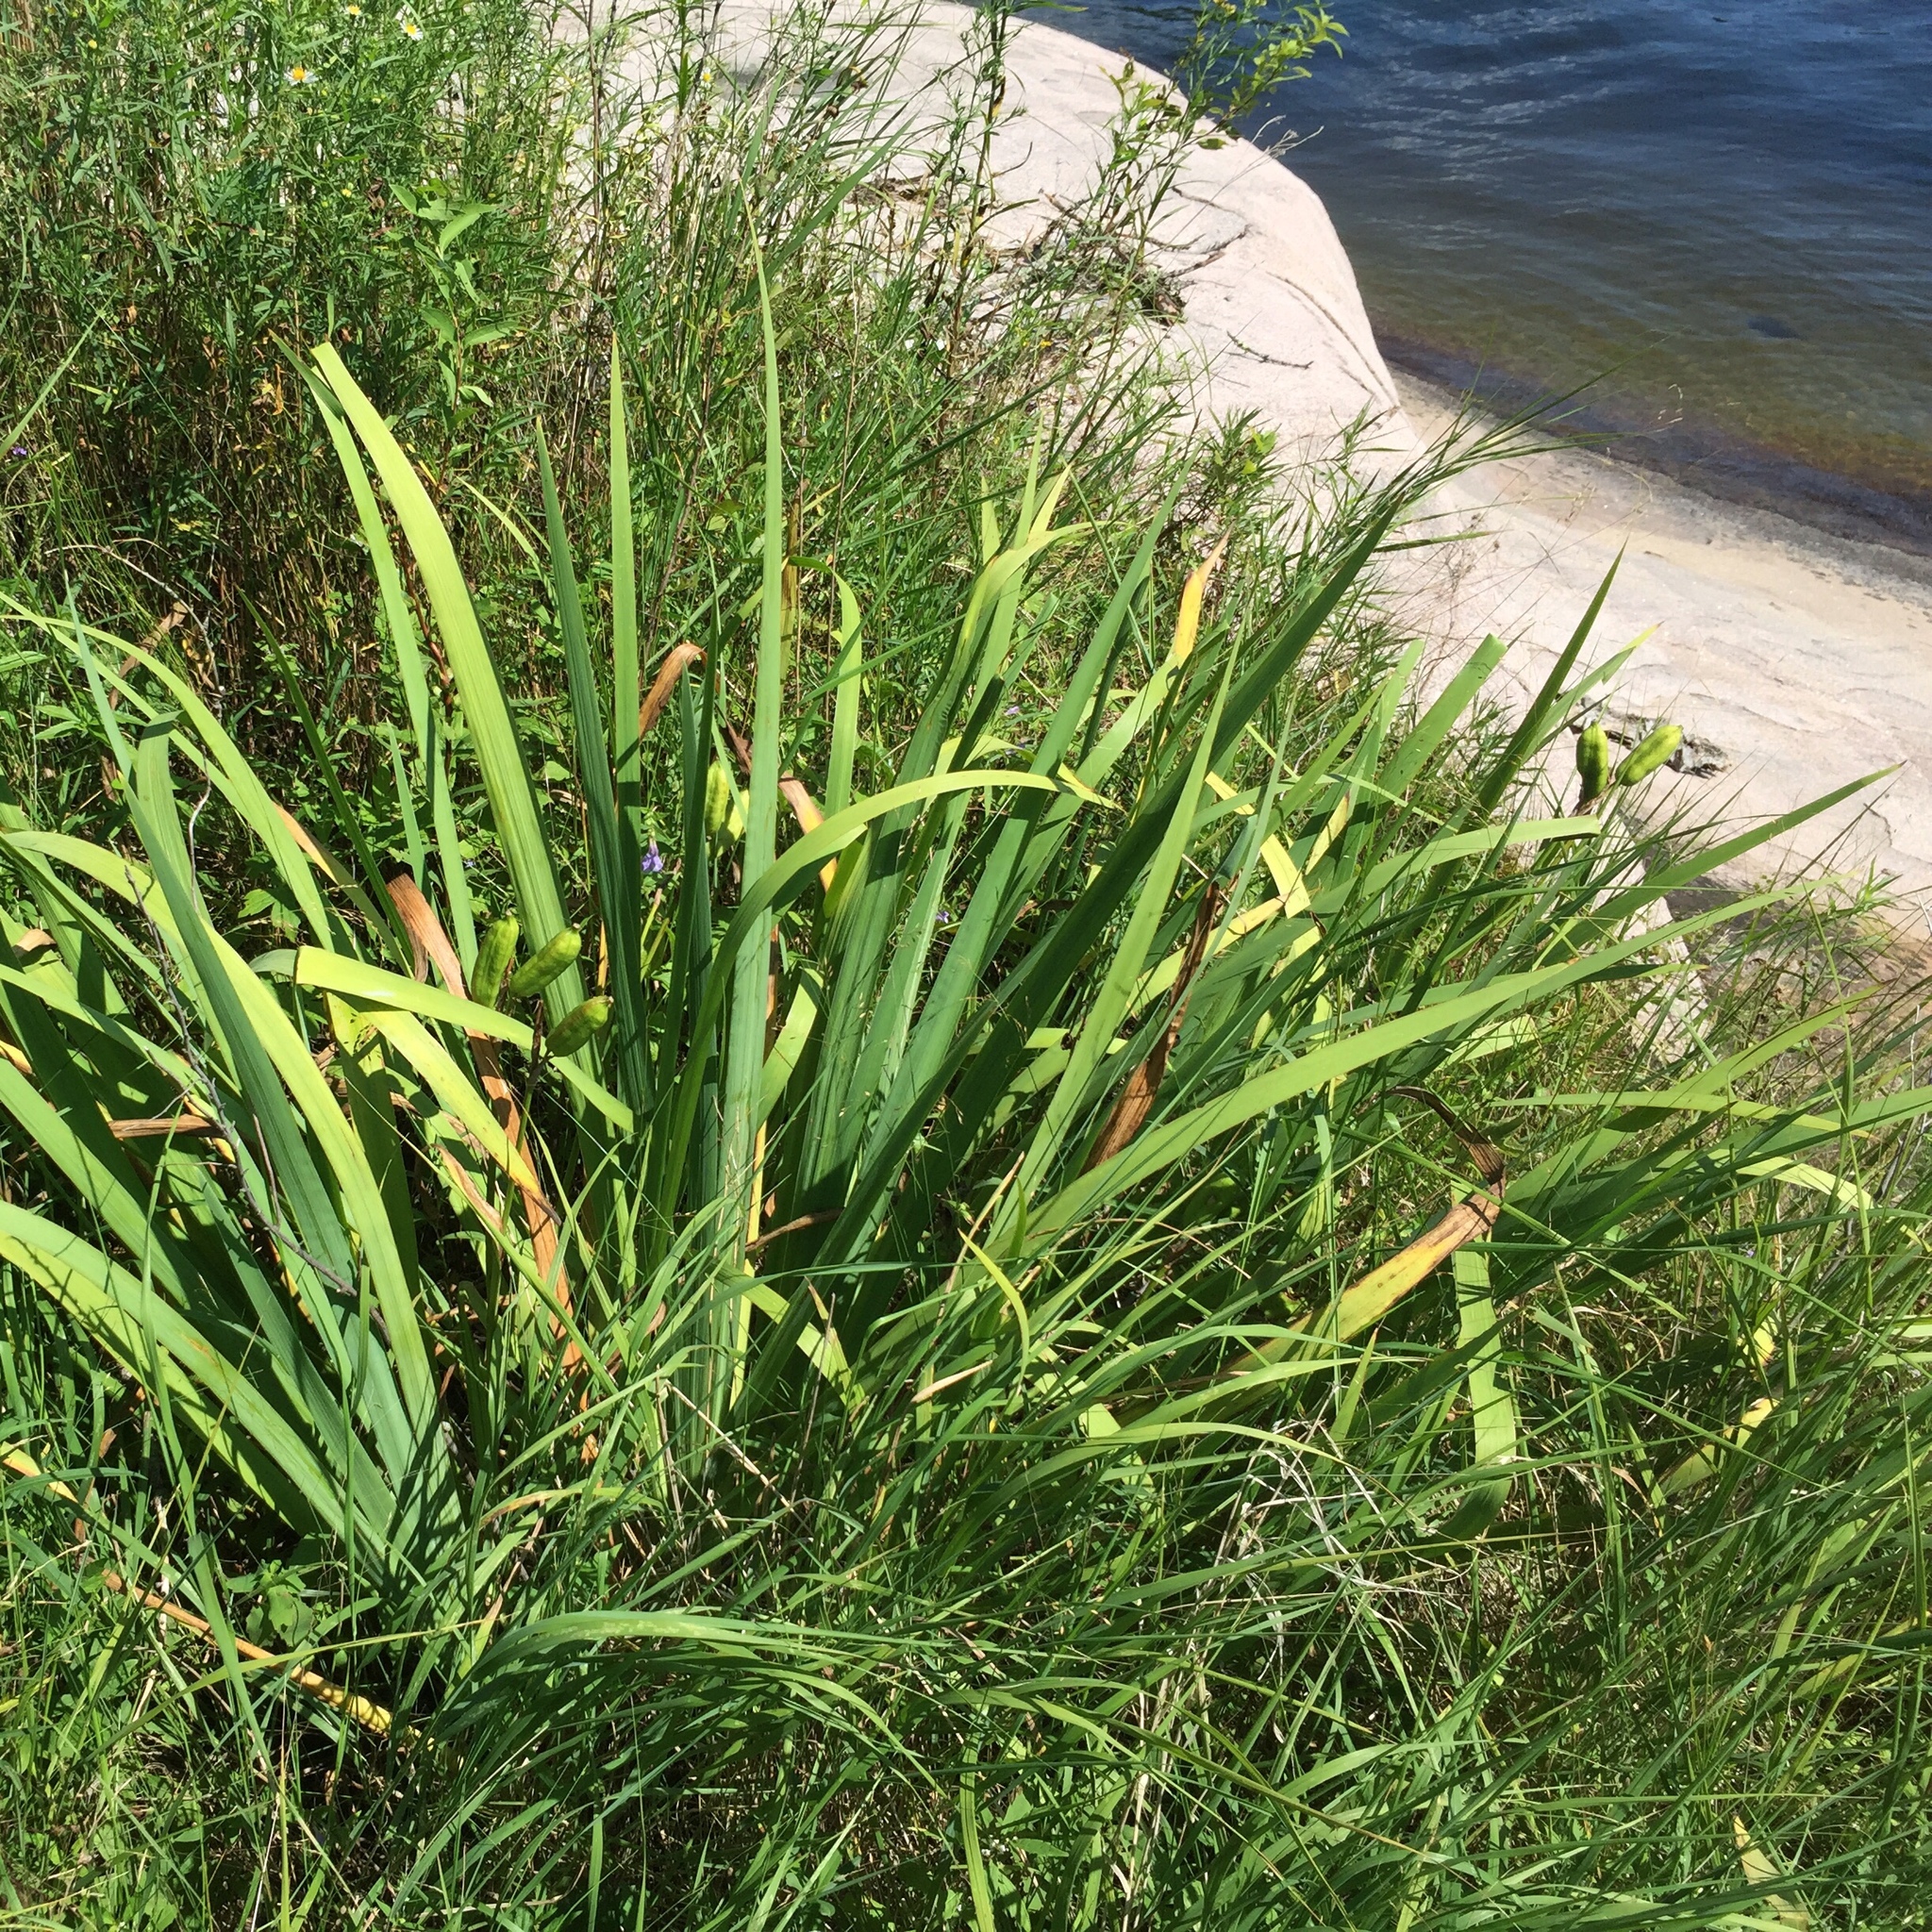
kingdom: Plantae
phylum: Tracheophyta
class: Liliopsida
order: Asparagales
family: Iridaceae
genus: Iris
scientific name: Iris versicolor
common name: Purple iris
